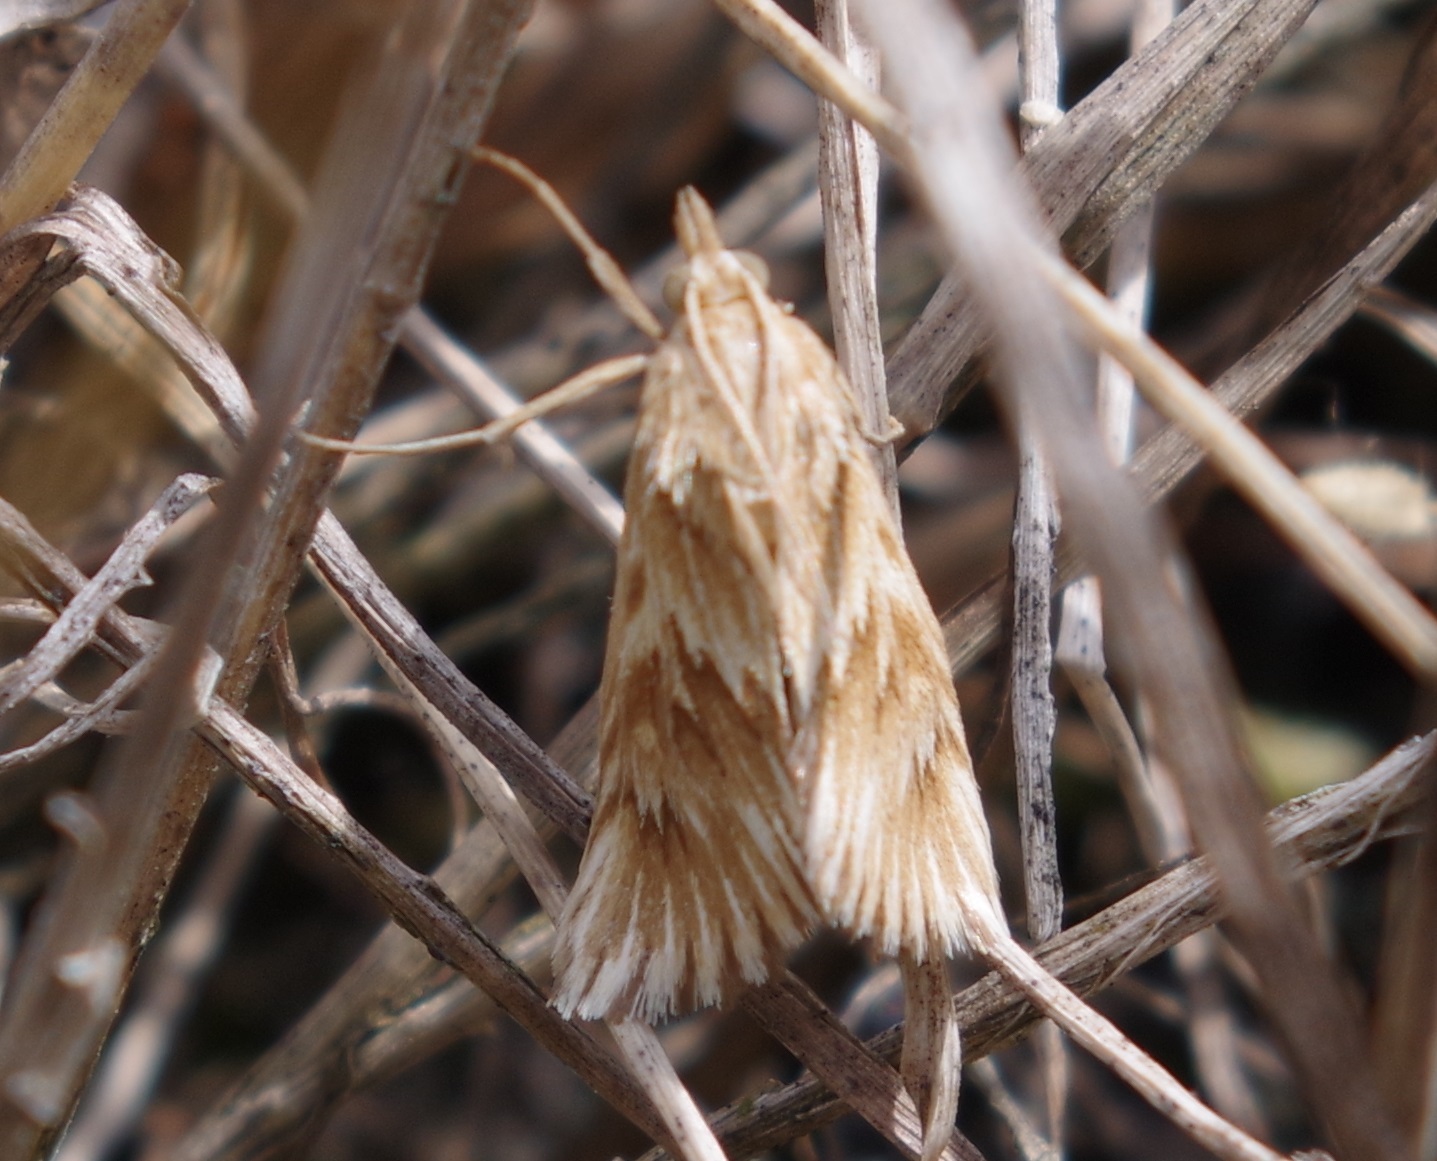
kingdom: Animalia
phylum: Arthropoda
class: Insecta
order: Lepidoptera
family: Crambidae
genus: Cynaeda
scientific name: Cynaeda dentalis
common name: Starry pearl
